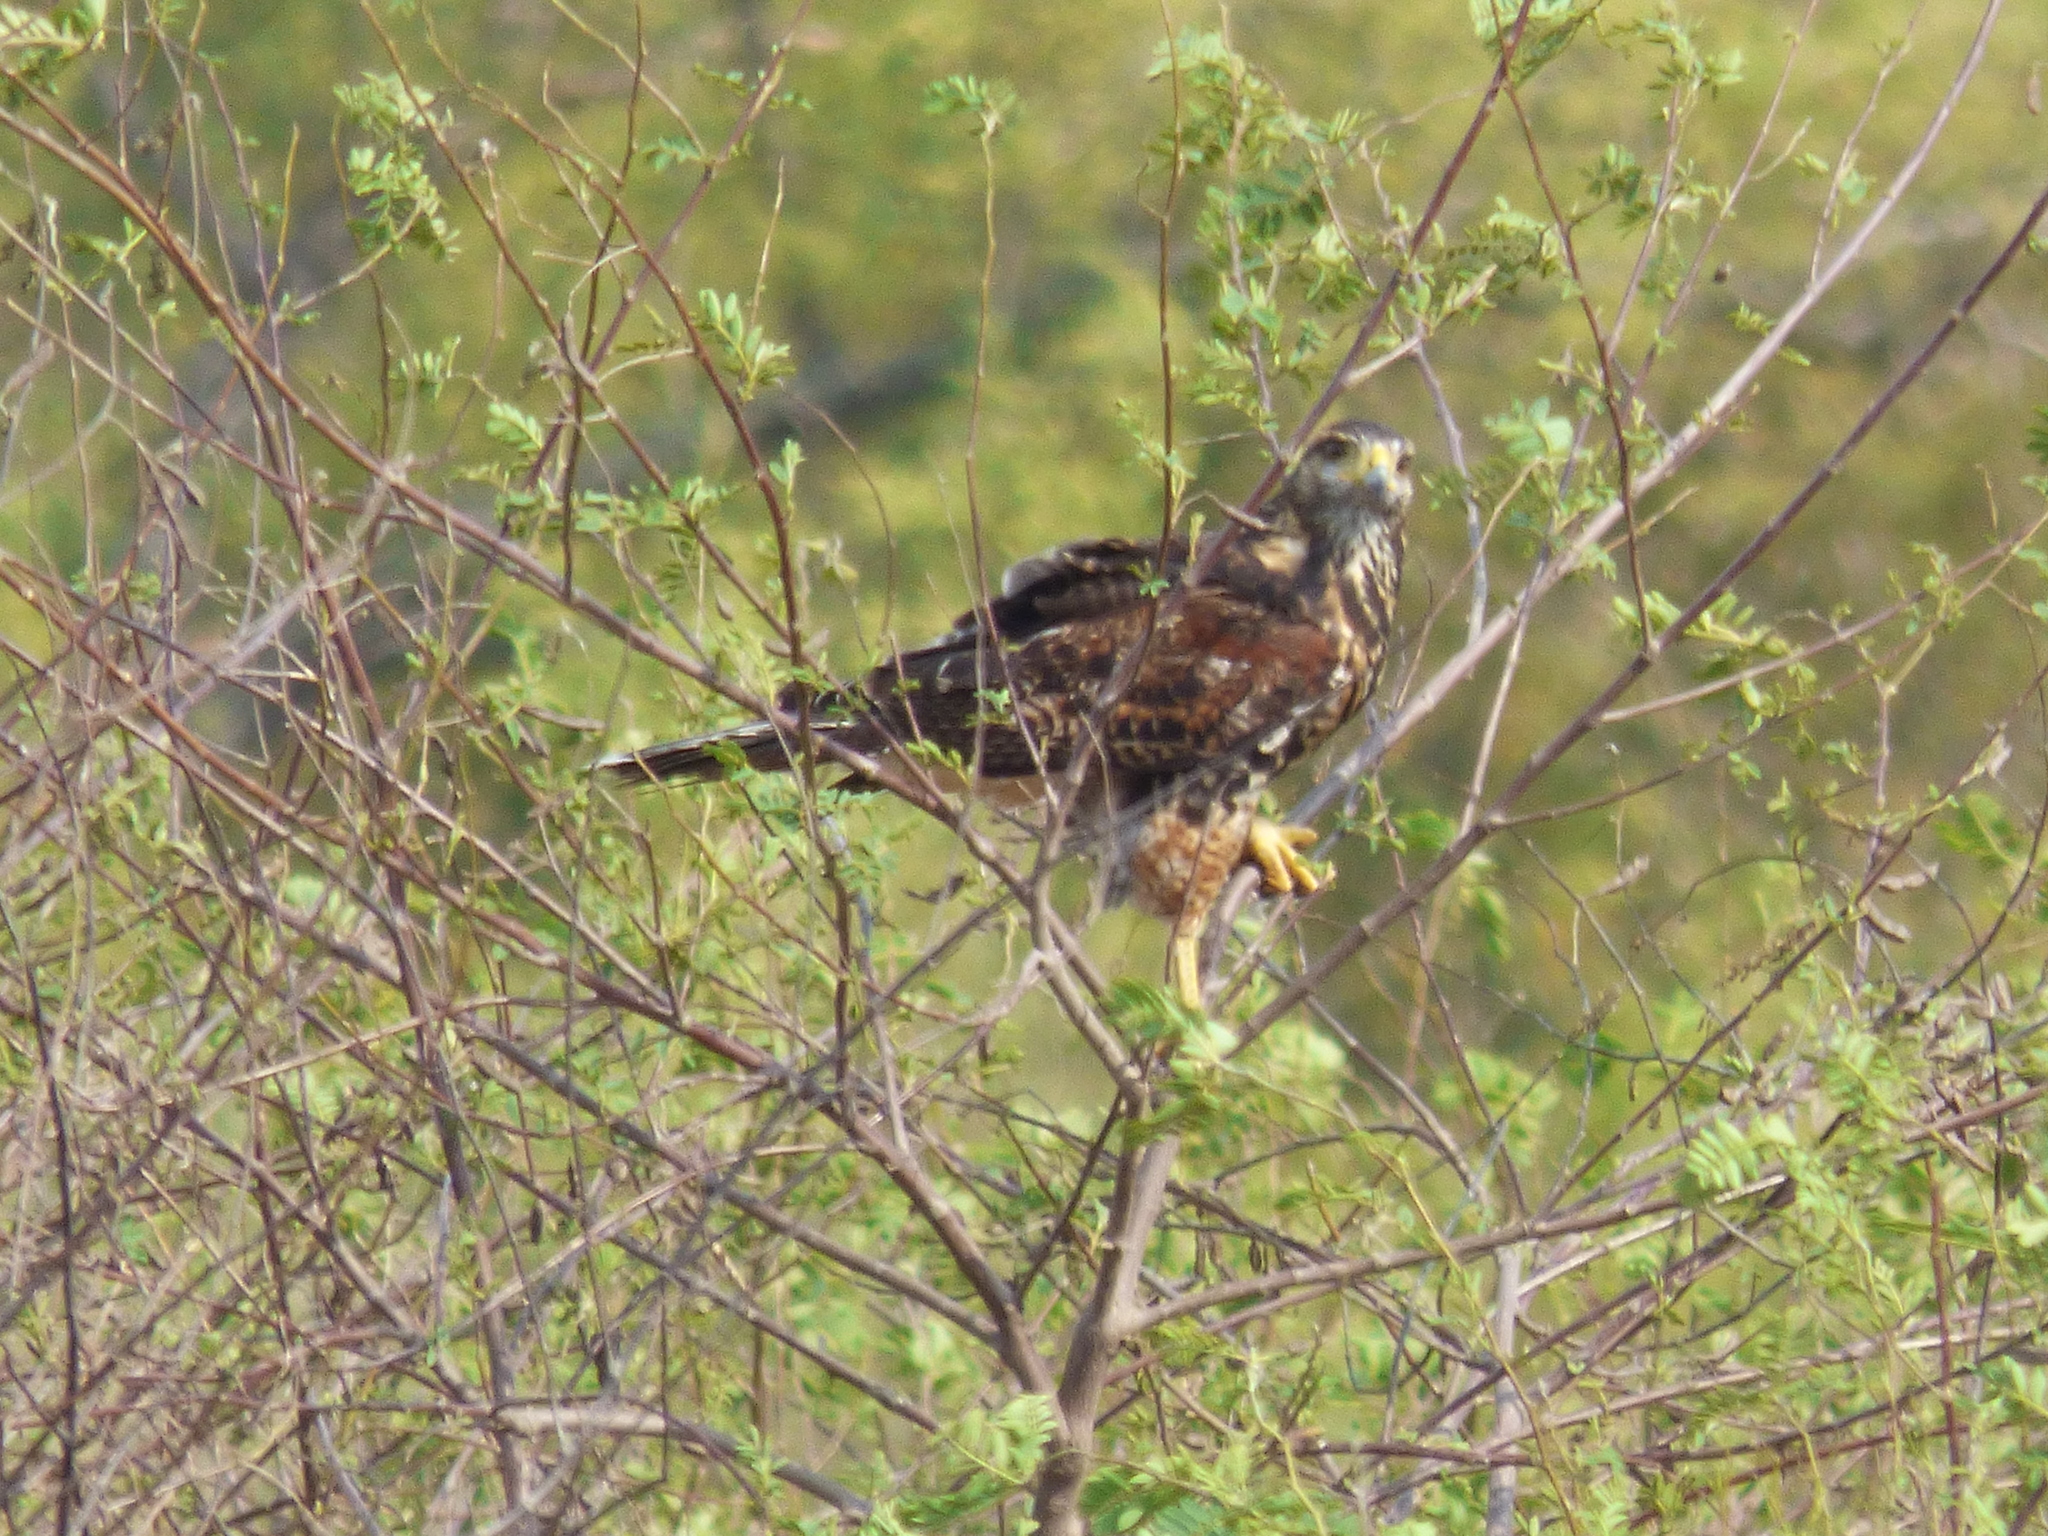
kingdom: Animalia
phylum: Chordata
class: Aves
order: Accipitriformes
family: Accipitridae
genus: Parabuteo
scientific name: Parabuteo unicinctus
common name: Harris's hawk
